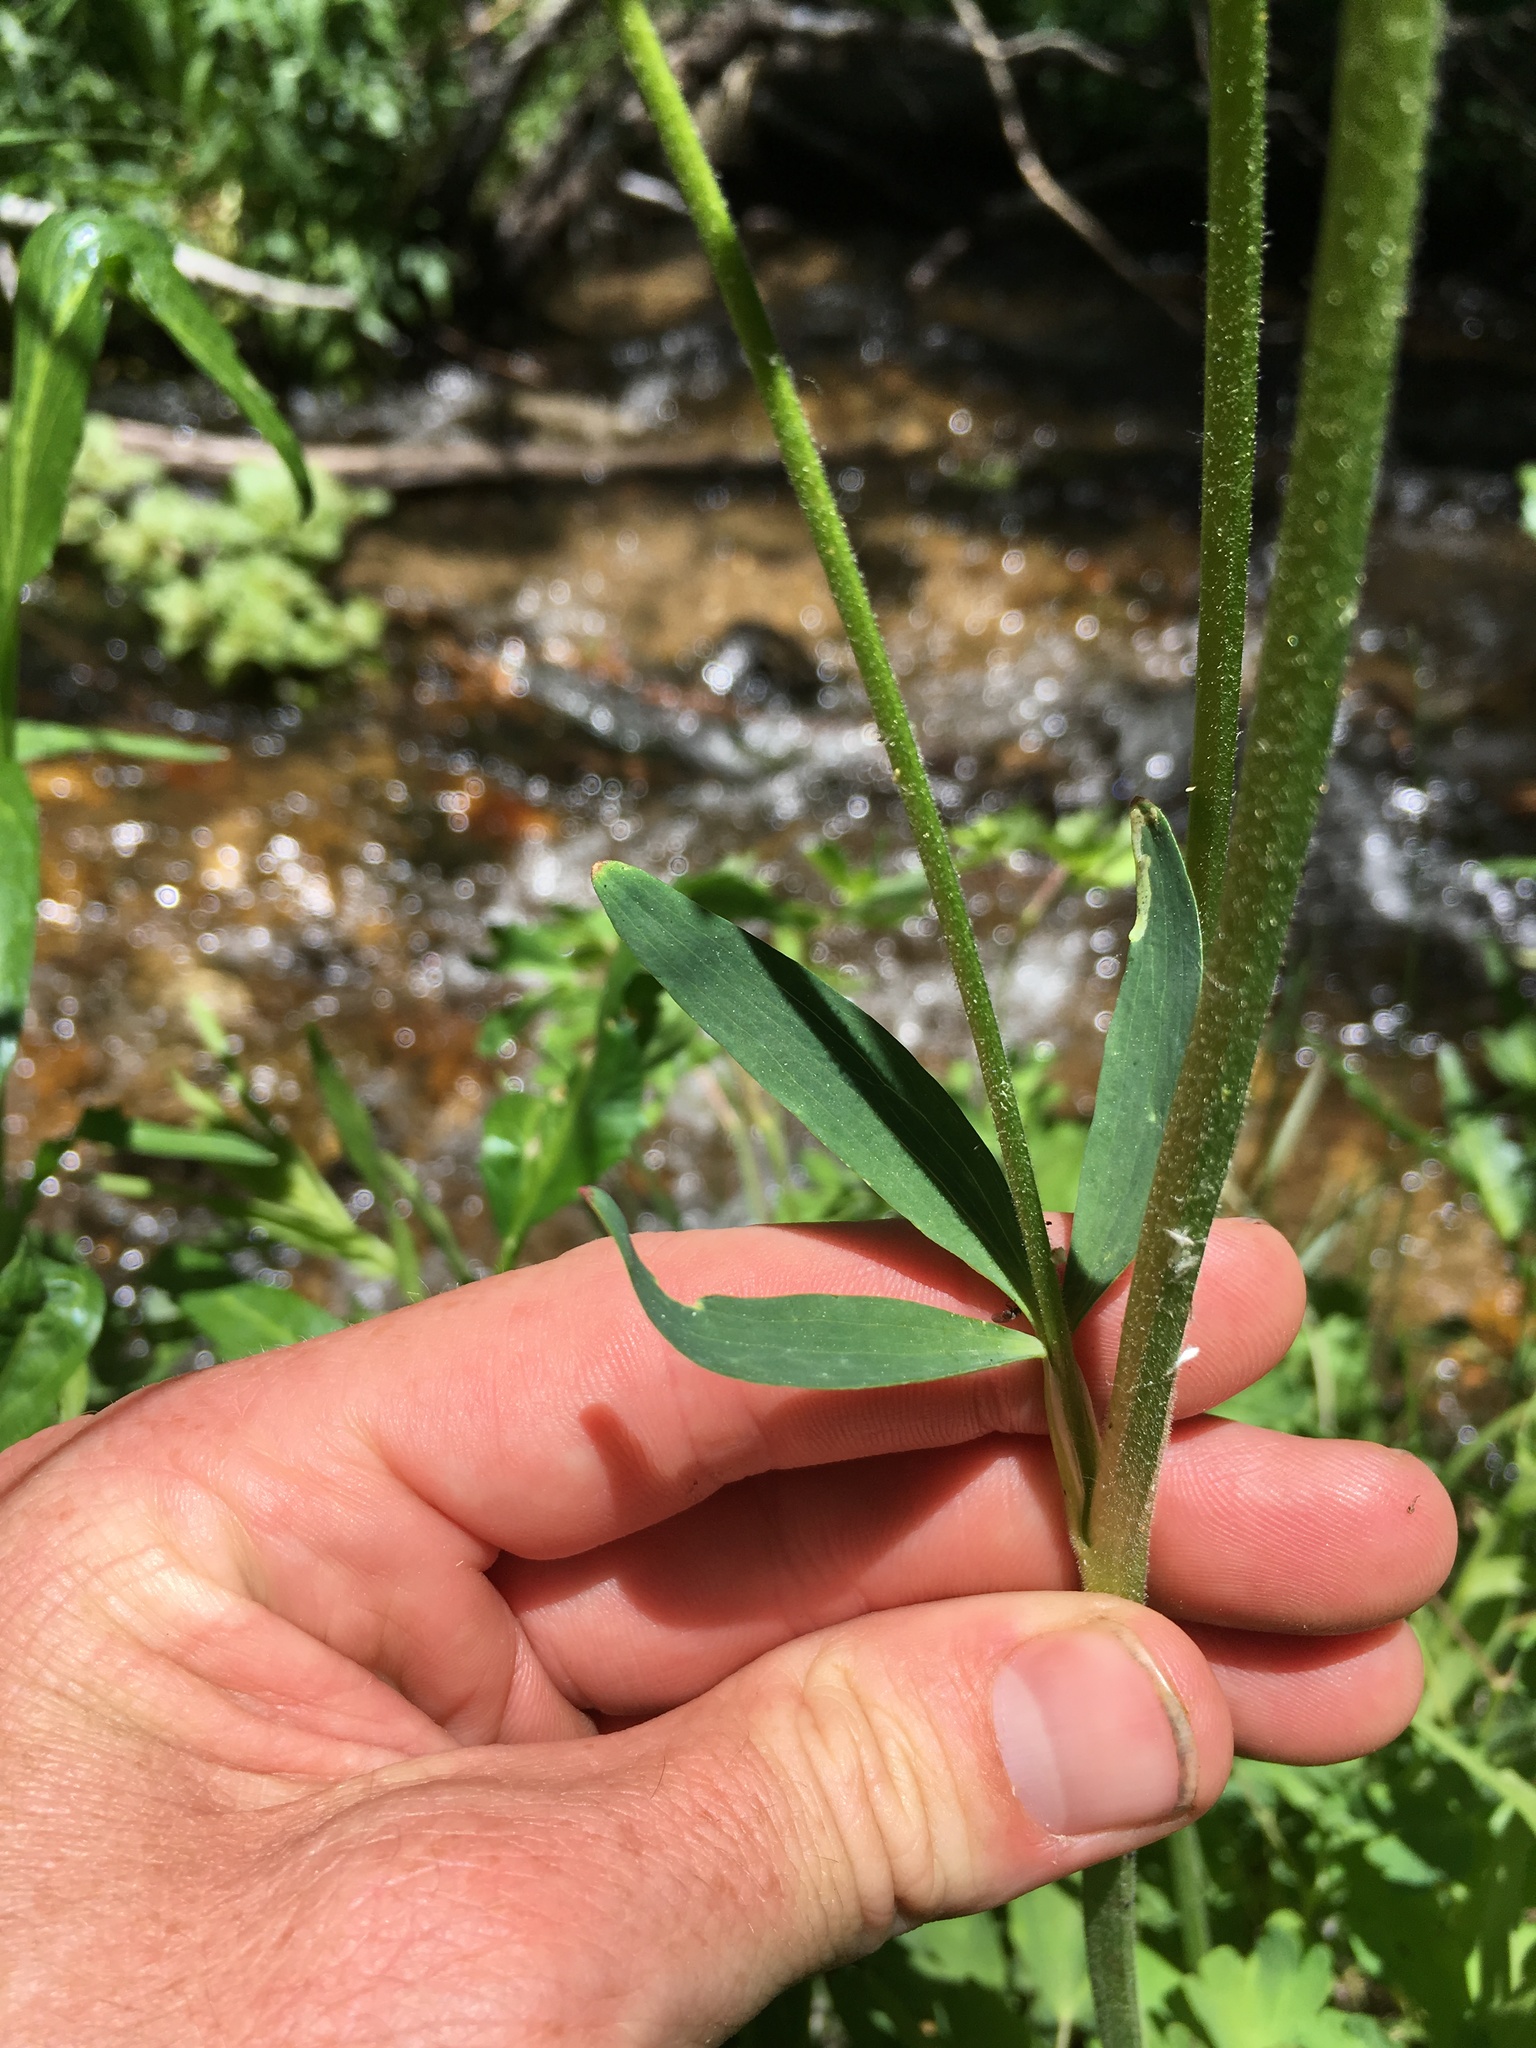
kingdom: Plantae
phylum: Tracheophyta
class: Magnoliopsida
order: Ranunculales
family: Ranunculaceae
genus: Aquilegia
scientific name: Aquilegia formosa
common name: Sitka columbine
